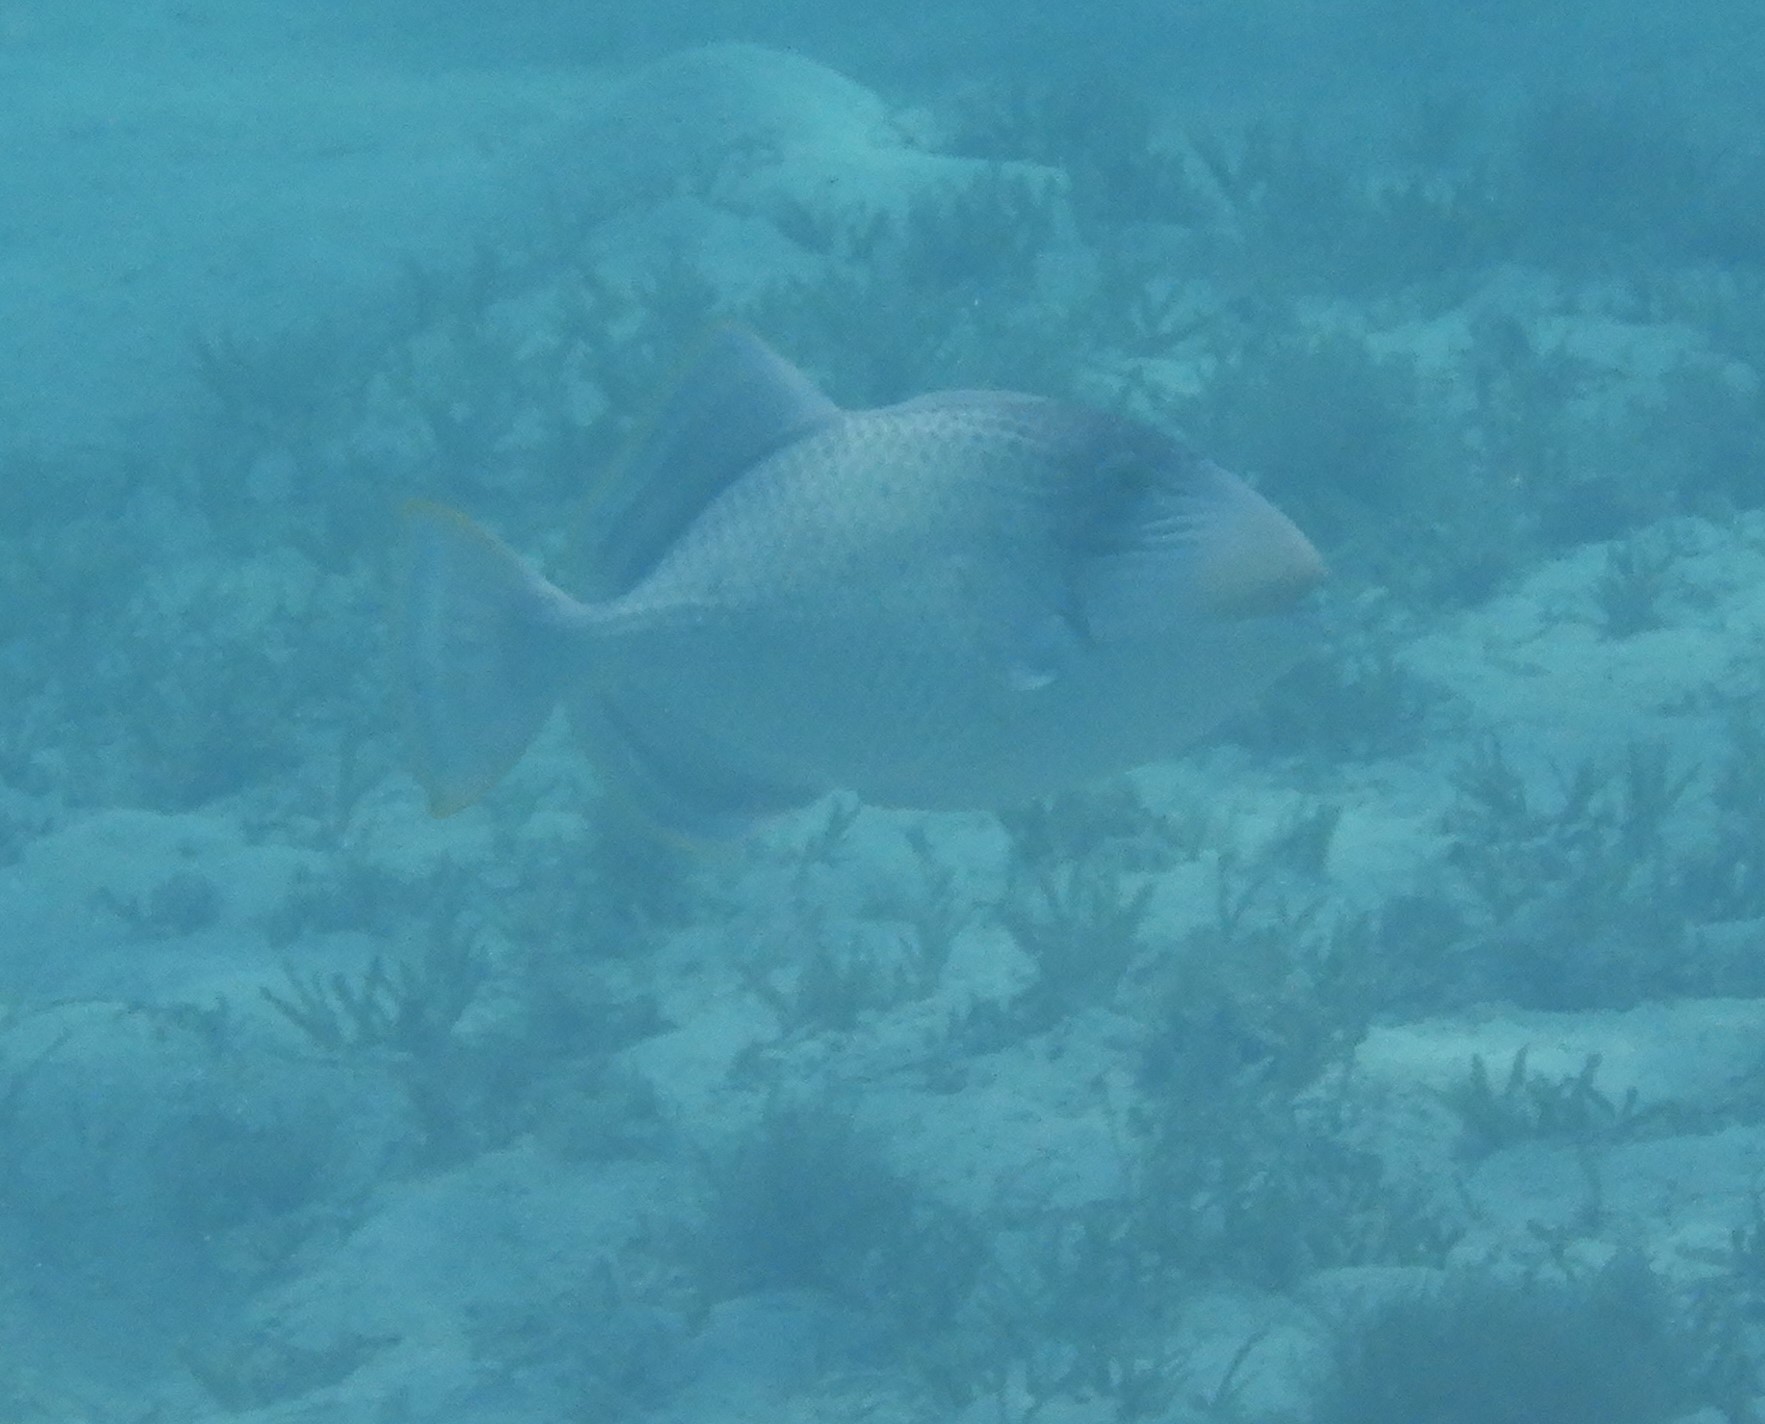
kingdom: Animalia
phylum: Chordata
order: Tetraodontiformes
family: Balistidae
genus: Pseudobalistes
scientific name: Pseudobalistes flavimarginatus
